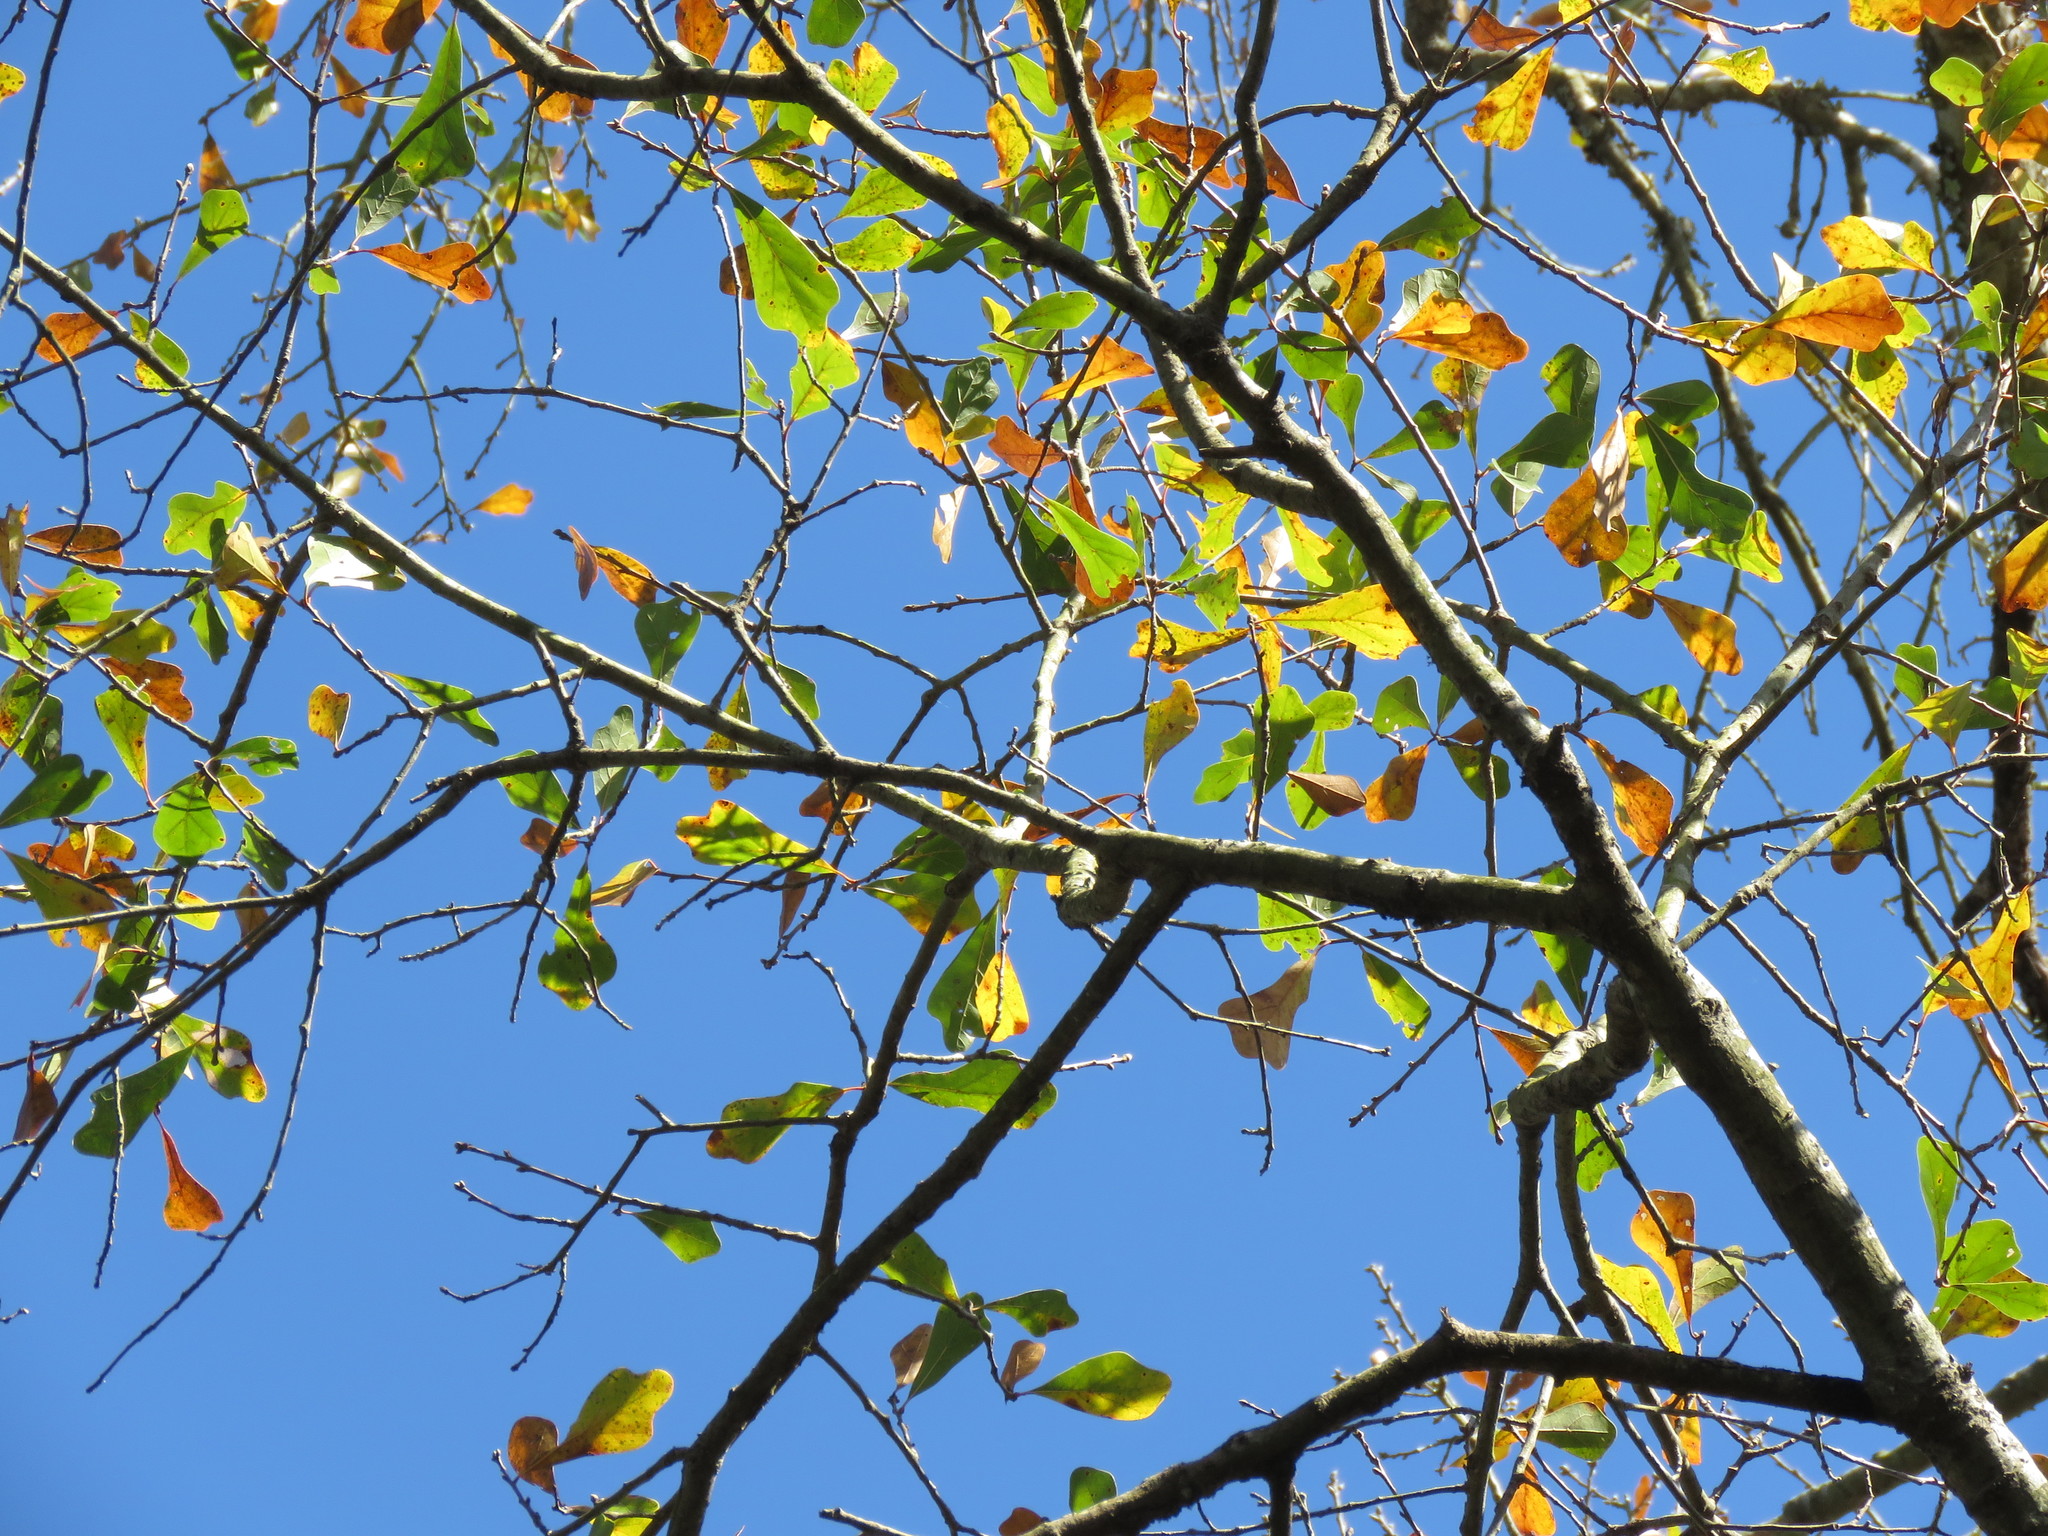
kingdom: Plantae
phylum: Tracheophyta
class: Magnoliopsida
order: Fagales
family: Fagaceae
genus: Quercus
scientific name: Quercus nigra
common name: Water oak
